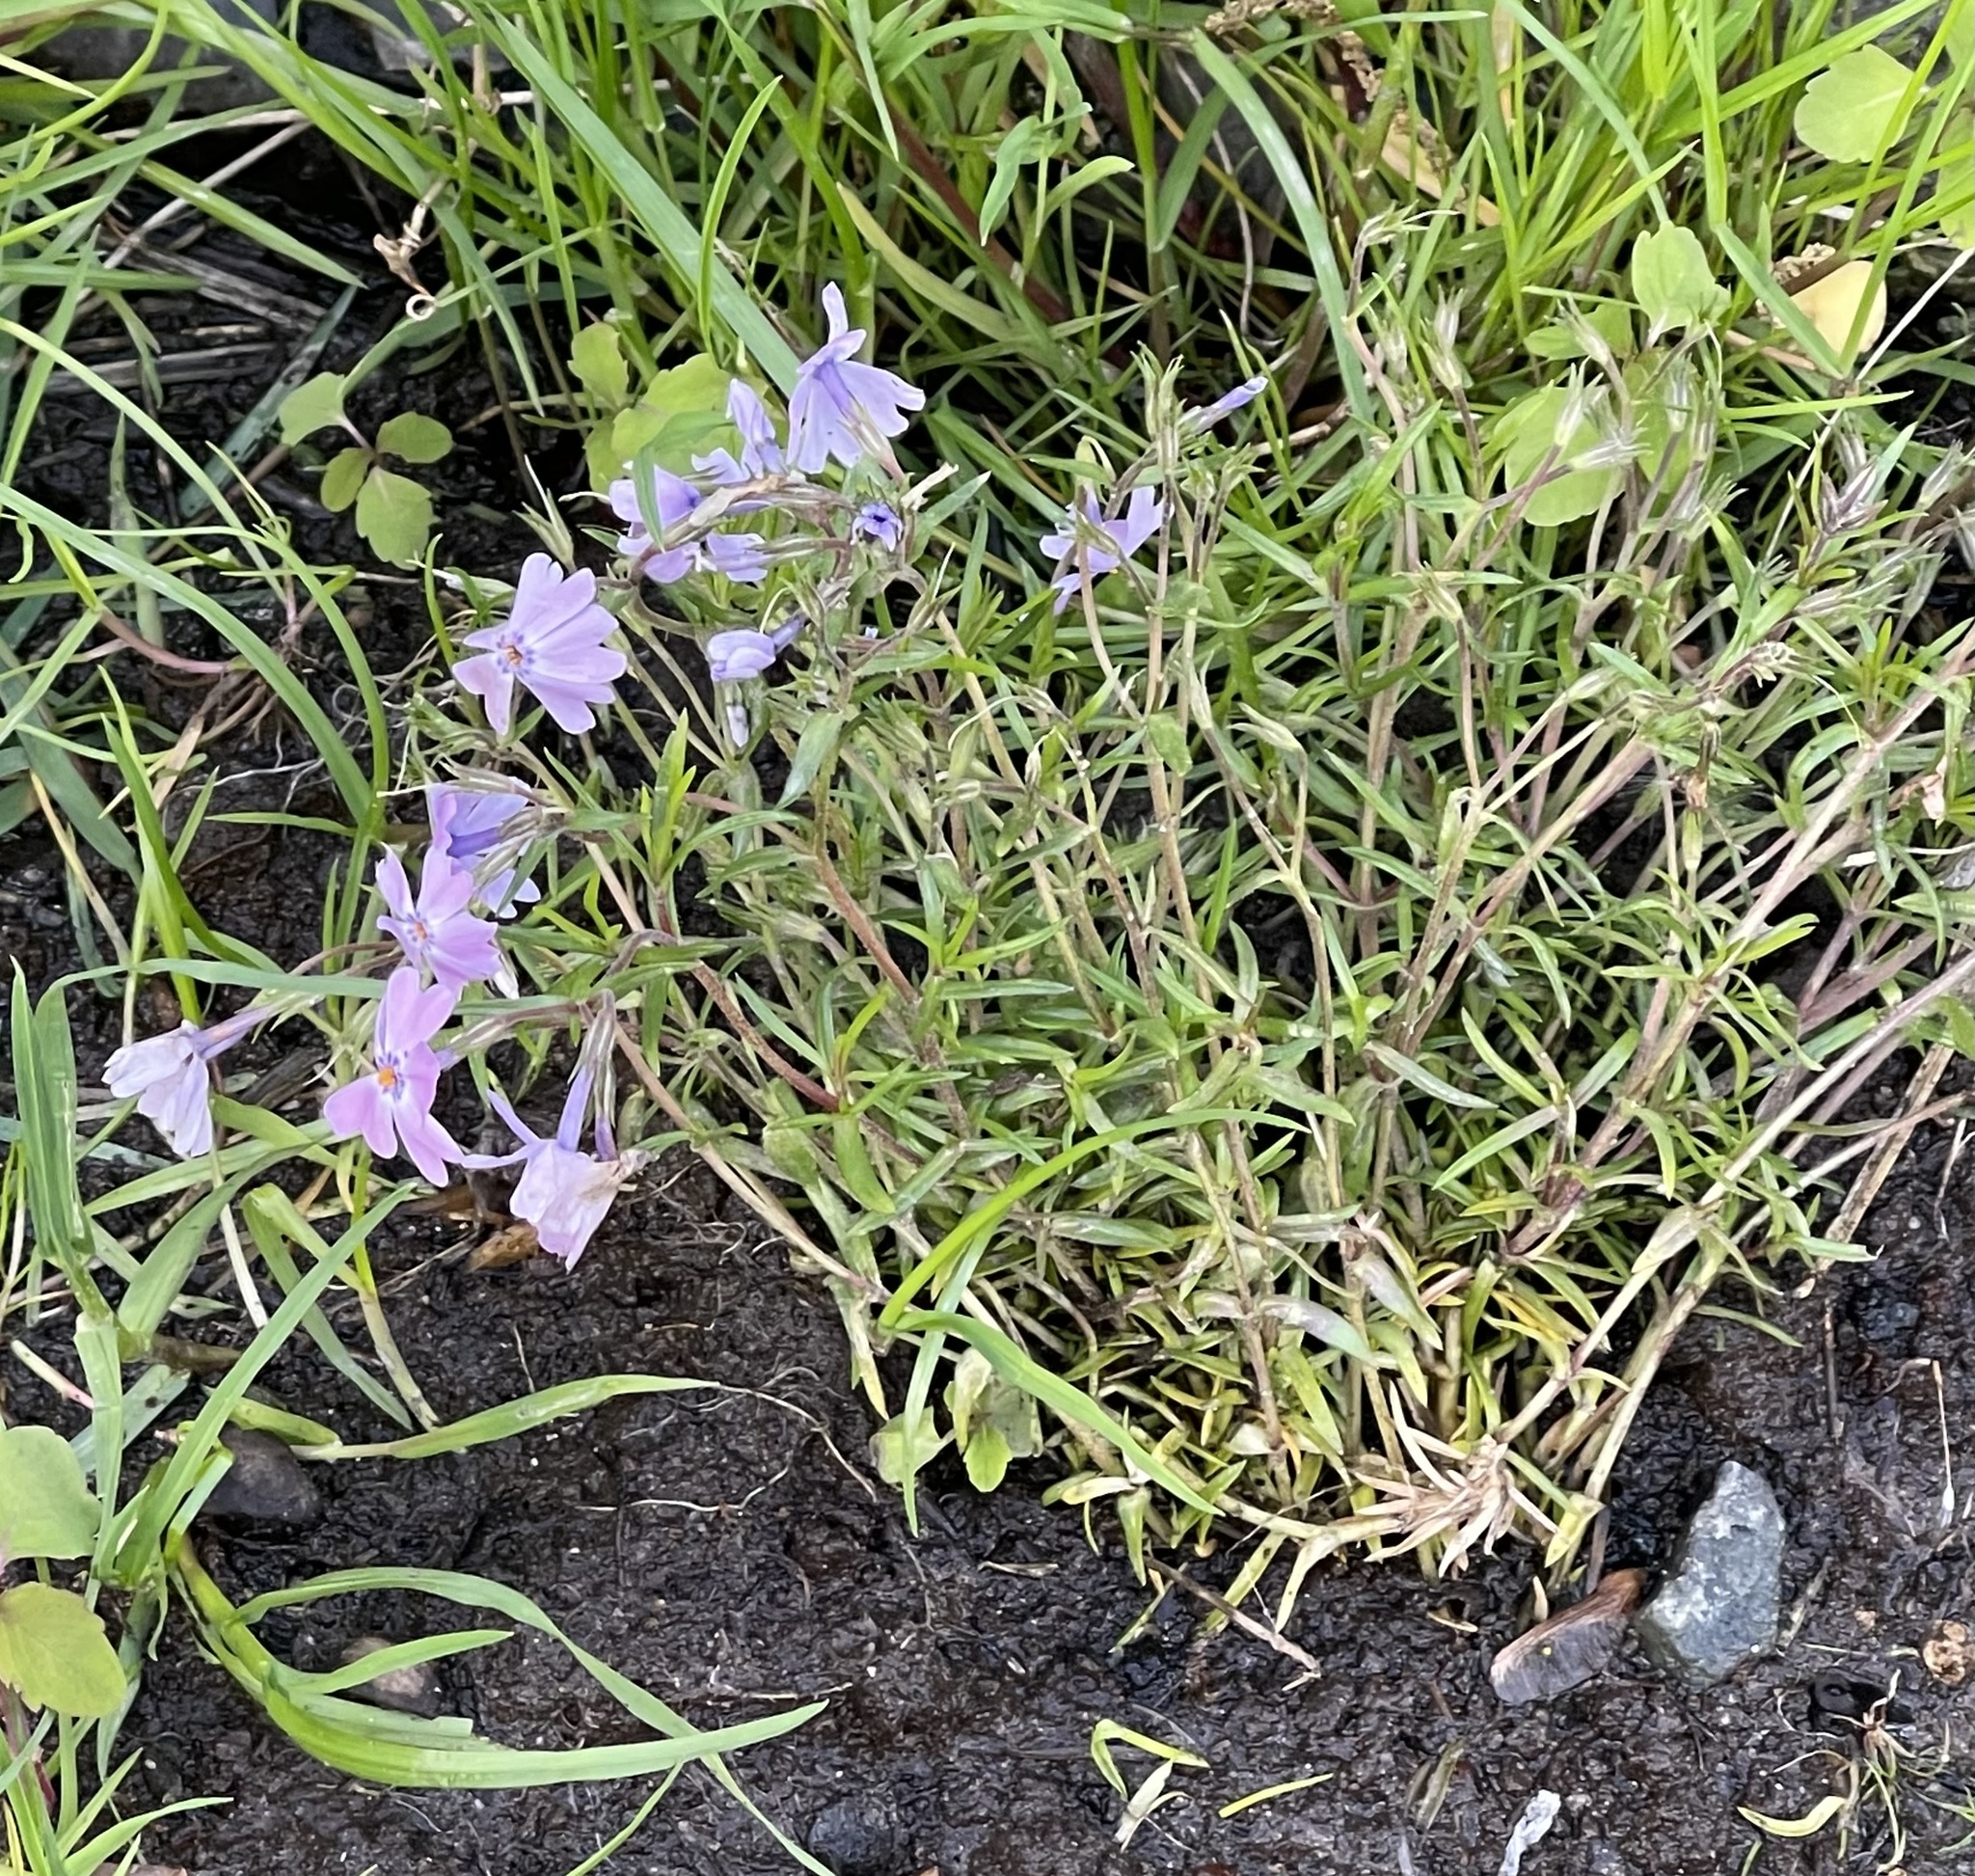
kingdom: Plantae
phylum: Tracheophyta
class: Magnoliopsida
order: Ericales
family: Polemoniaceae
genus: Phlox
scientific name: Phlox subulata
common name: Moss phlox
